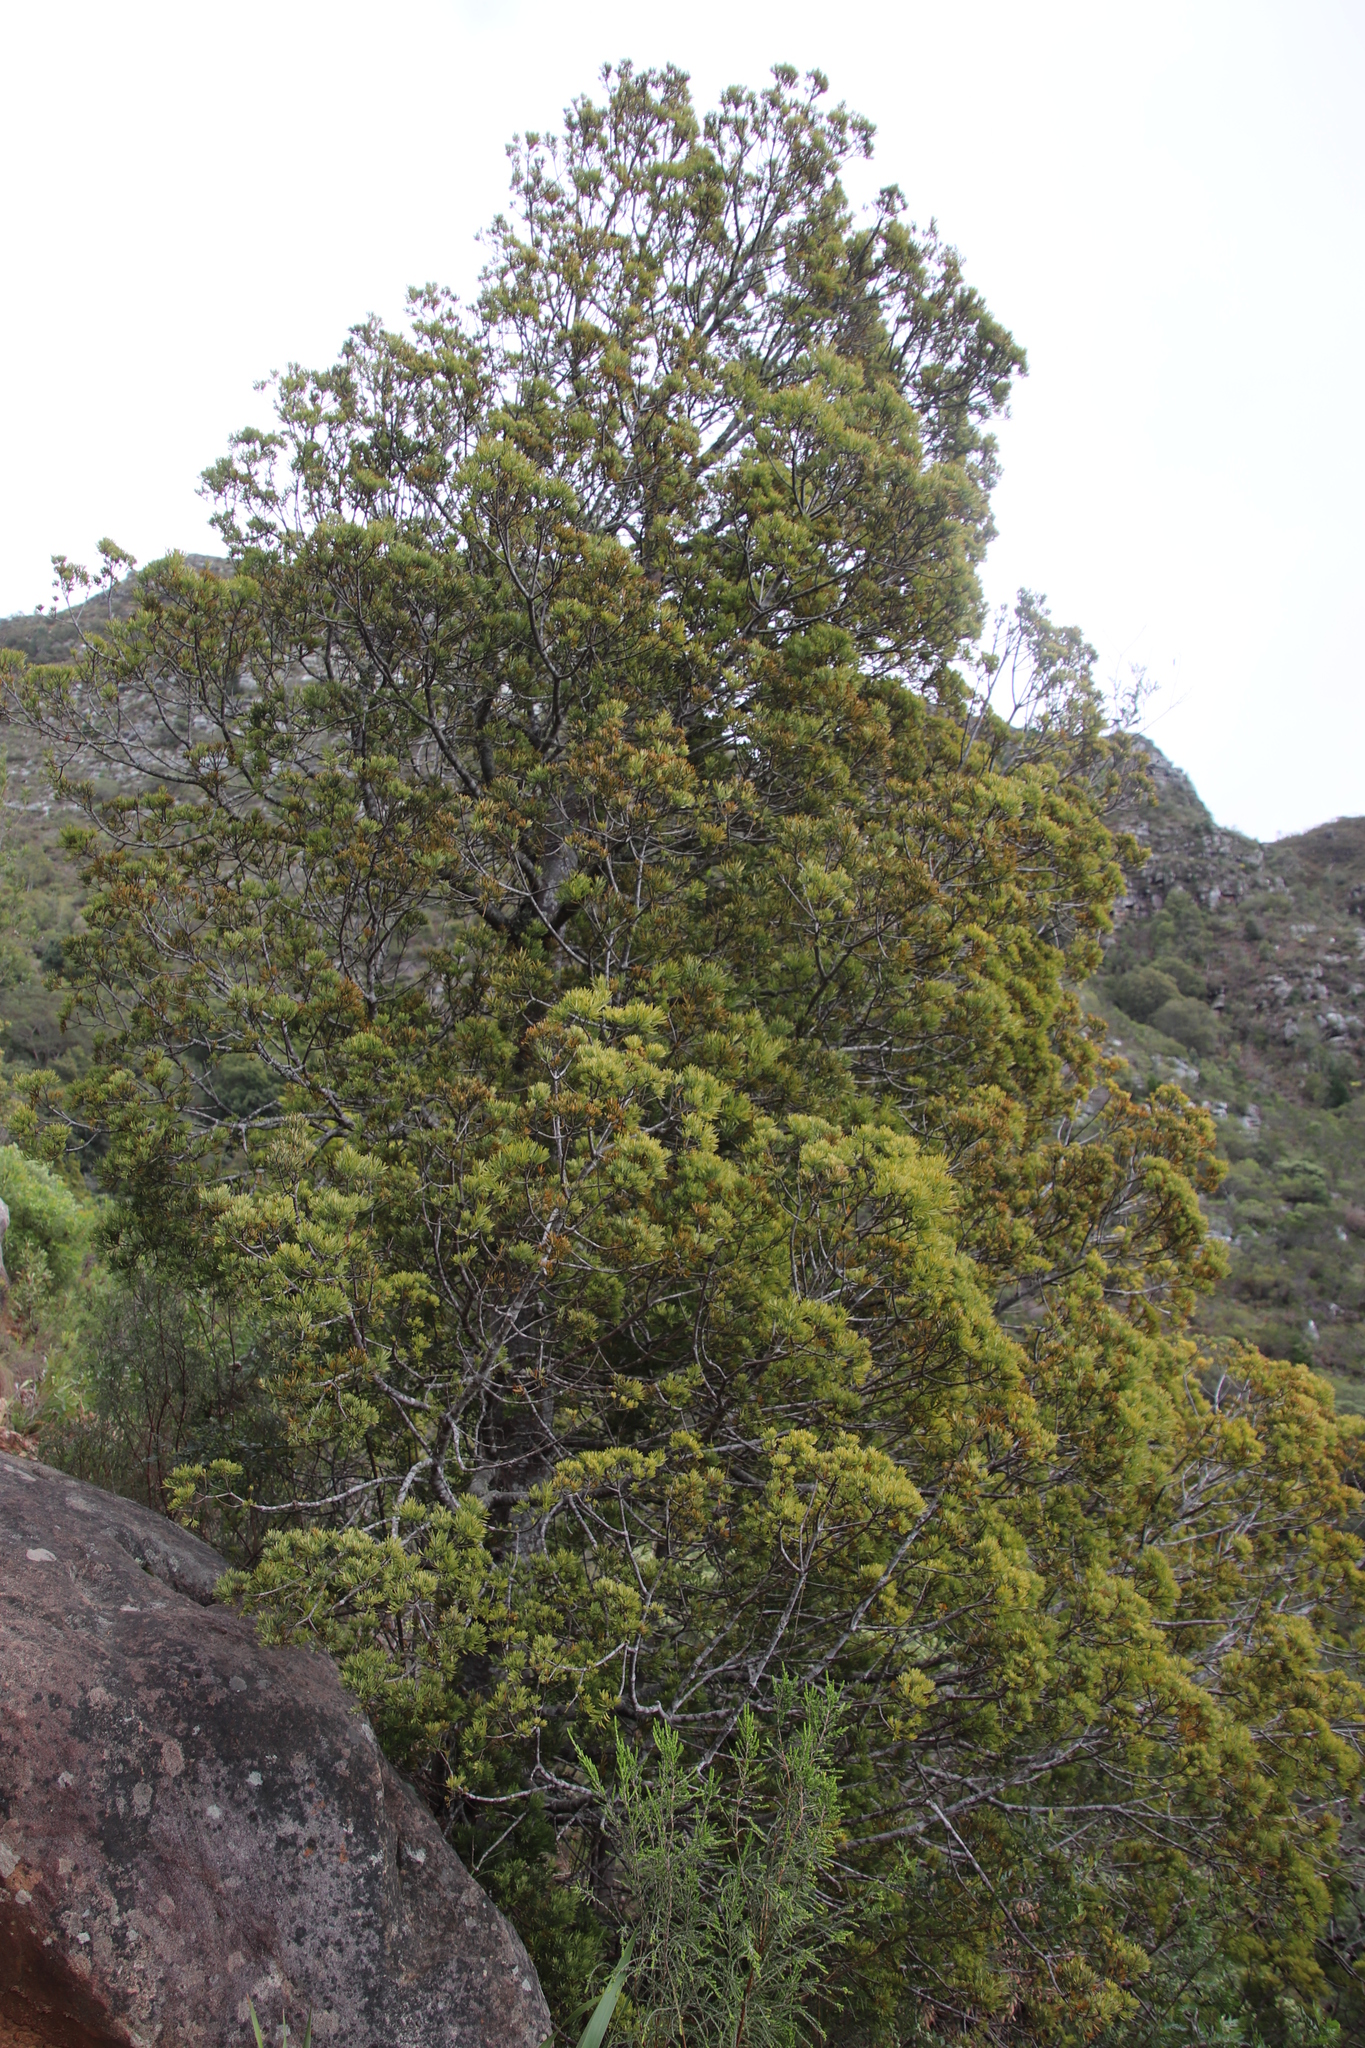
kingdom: Plantae
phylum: Tracheophyta
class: Pinopsida
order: Pinales
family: Podocarpaceae
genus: Afrocarpus
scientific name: Afrocarpus falcatus
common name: Bastard yellowwood
